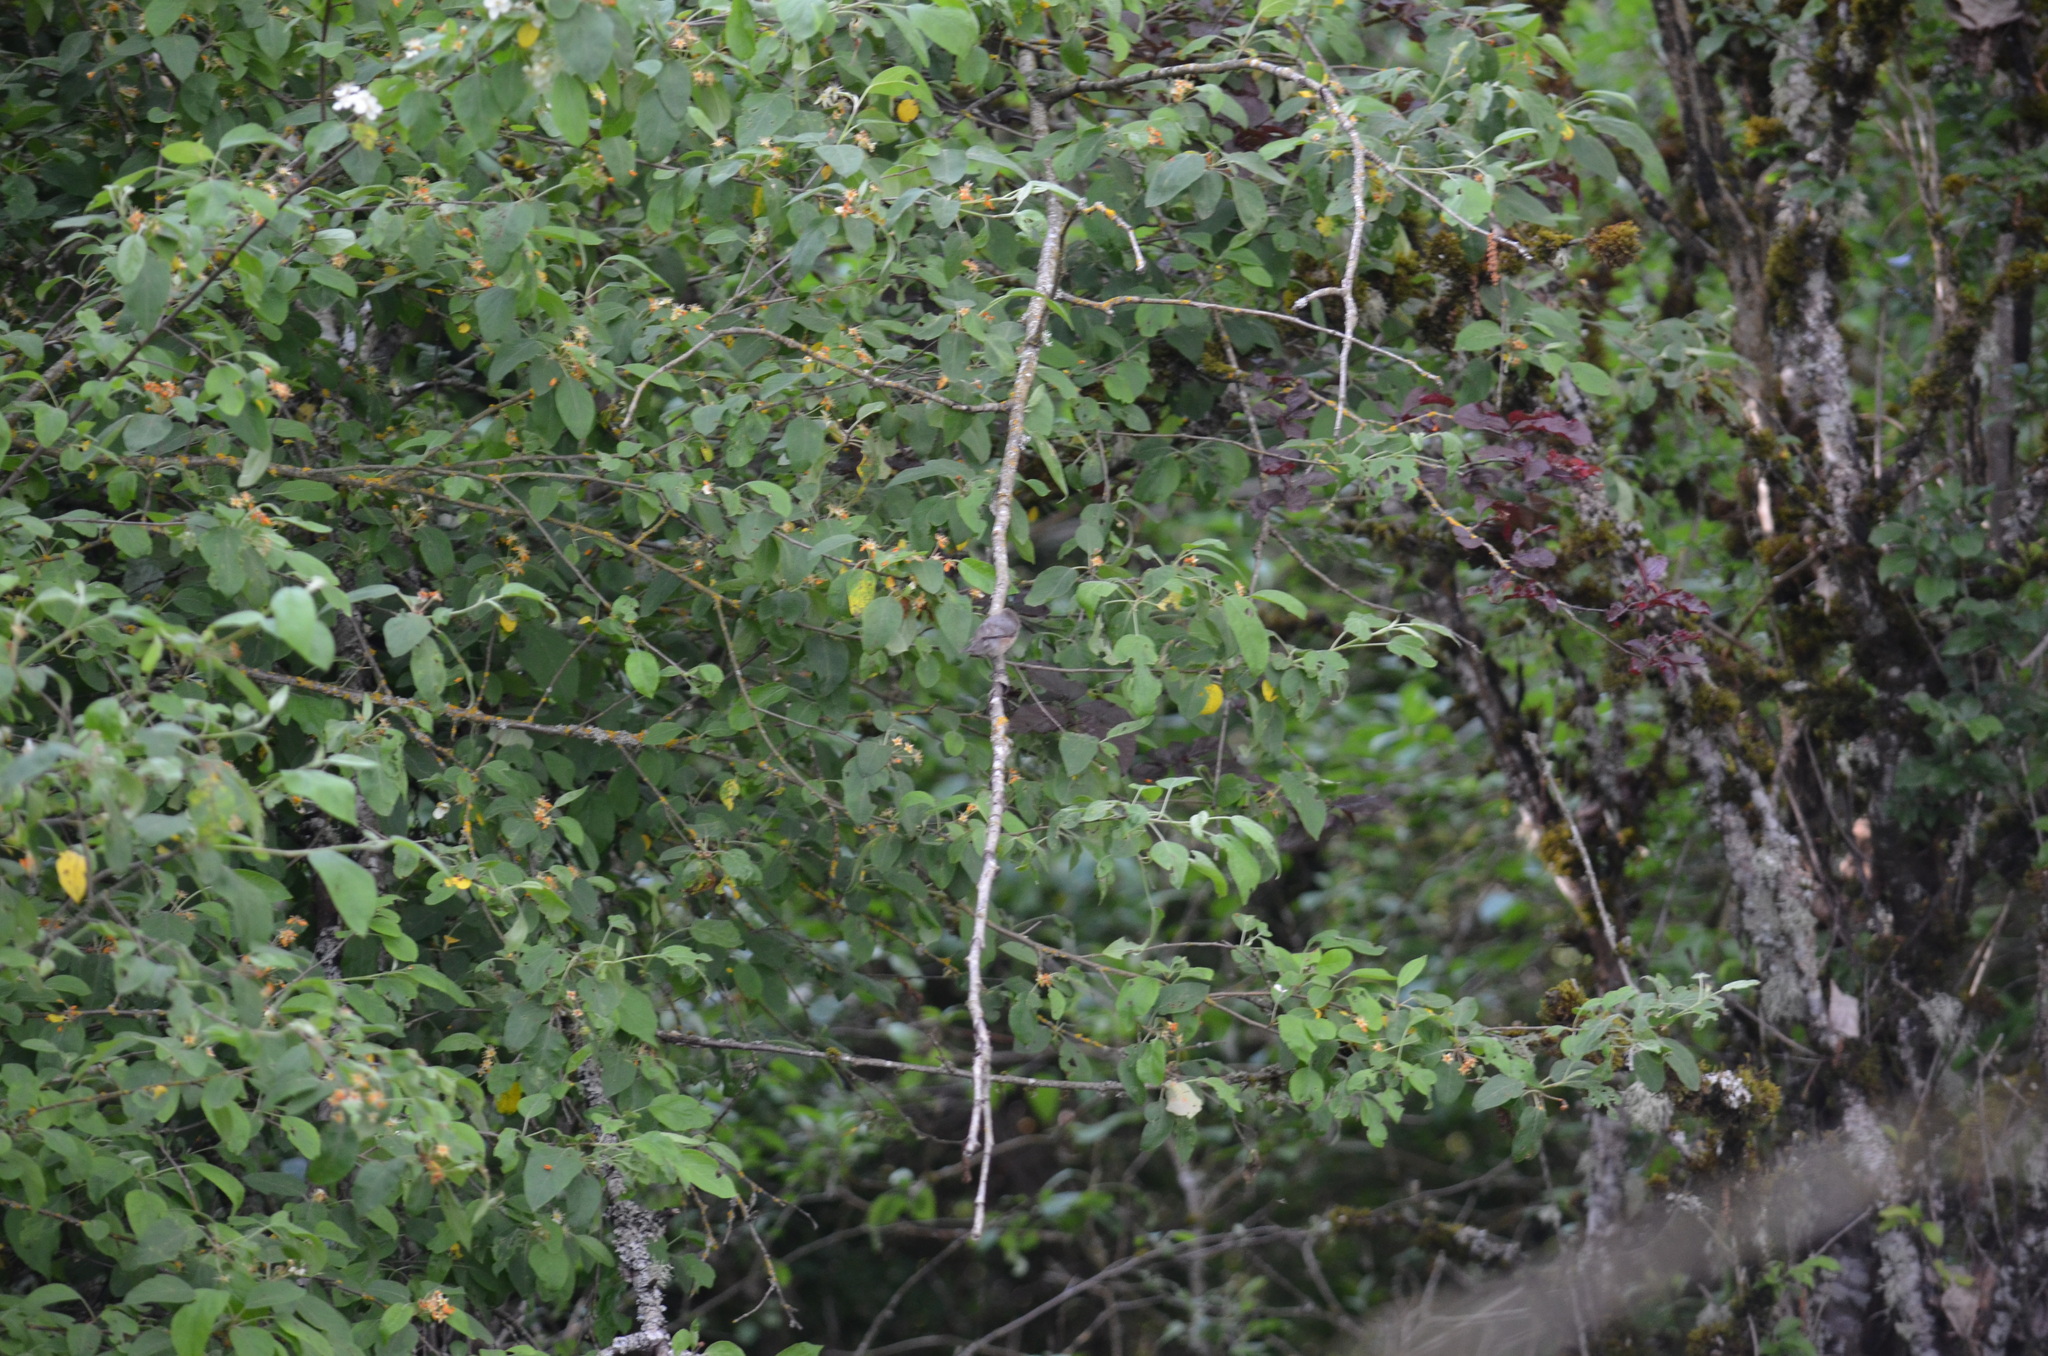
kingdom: Animalia
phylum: Chordata
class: Aves
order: Passeriformes
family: Aegithalidae
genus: Psaltriparus
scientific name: Psaltriparus minimus
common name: American bushtit
